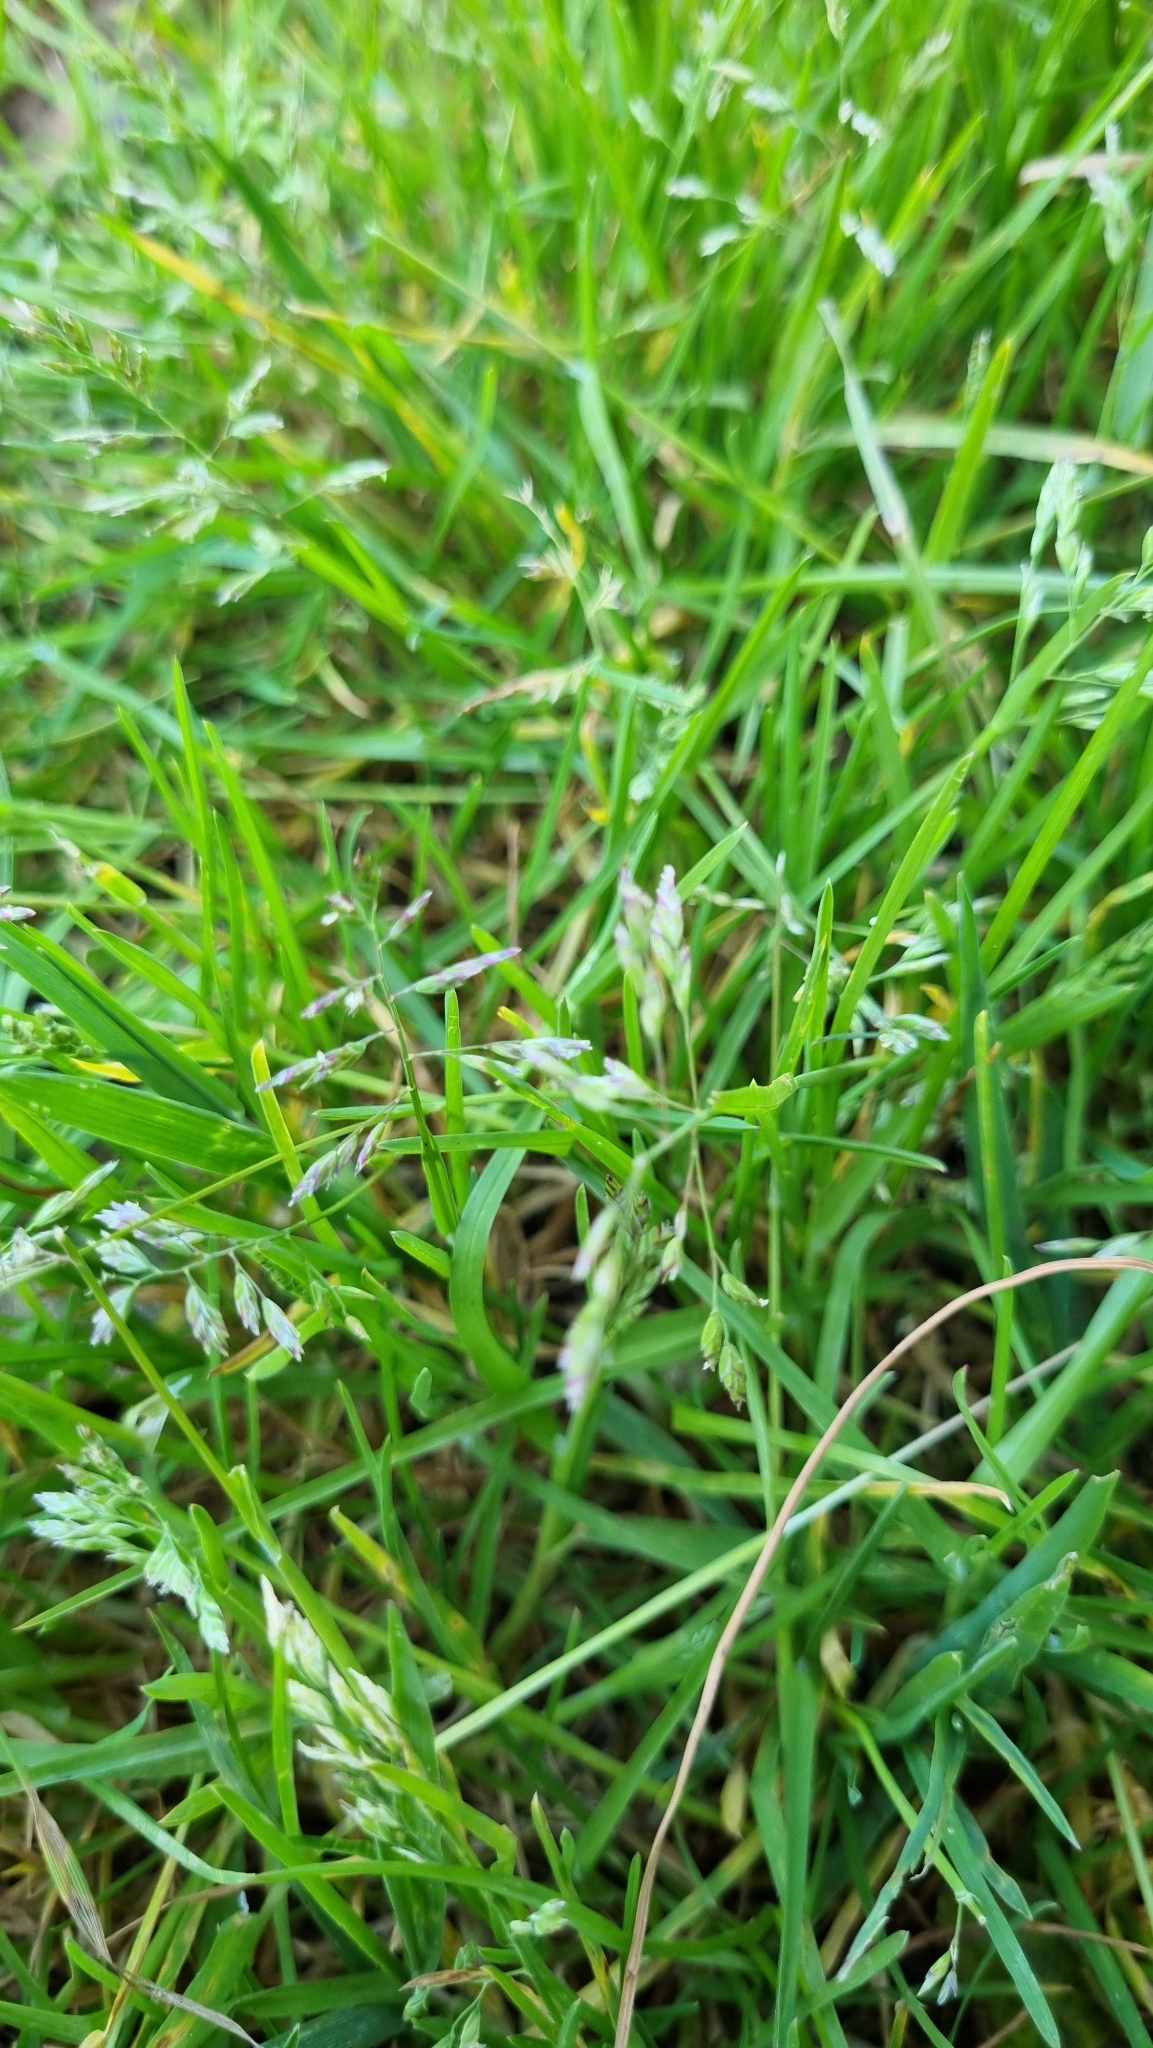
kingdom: Plantae
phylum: Tracheophyta
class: Liliopsida
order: Poales
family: Poaceae
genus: Poa
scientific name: Poa annua
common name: Annual bluegrass
